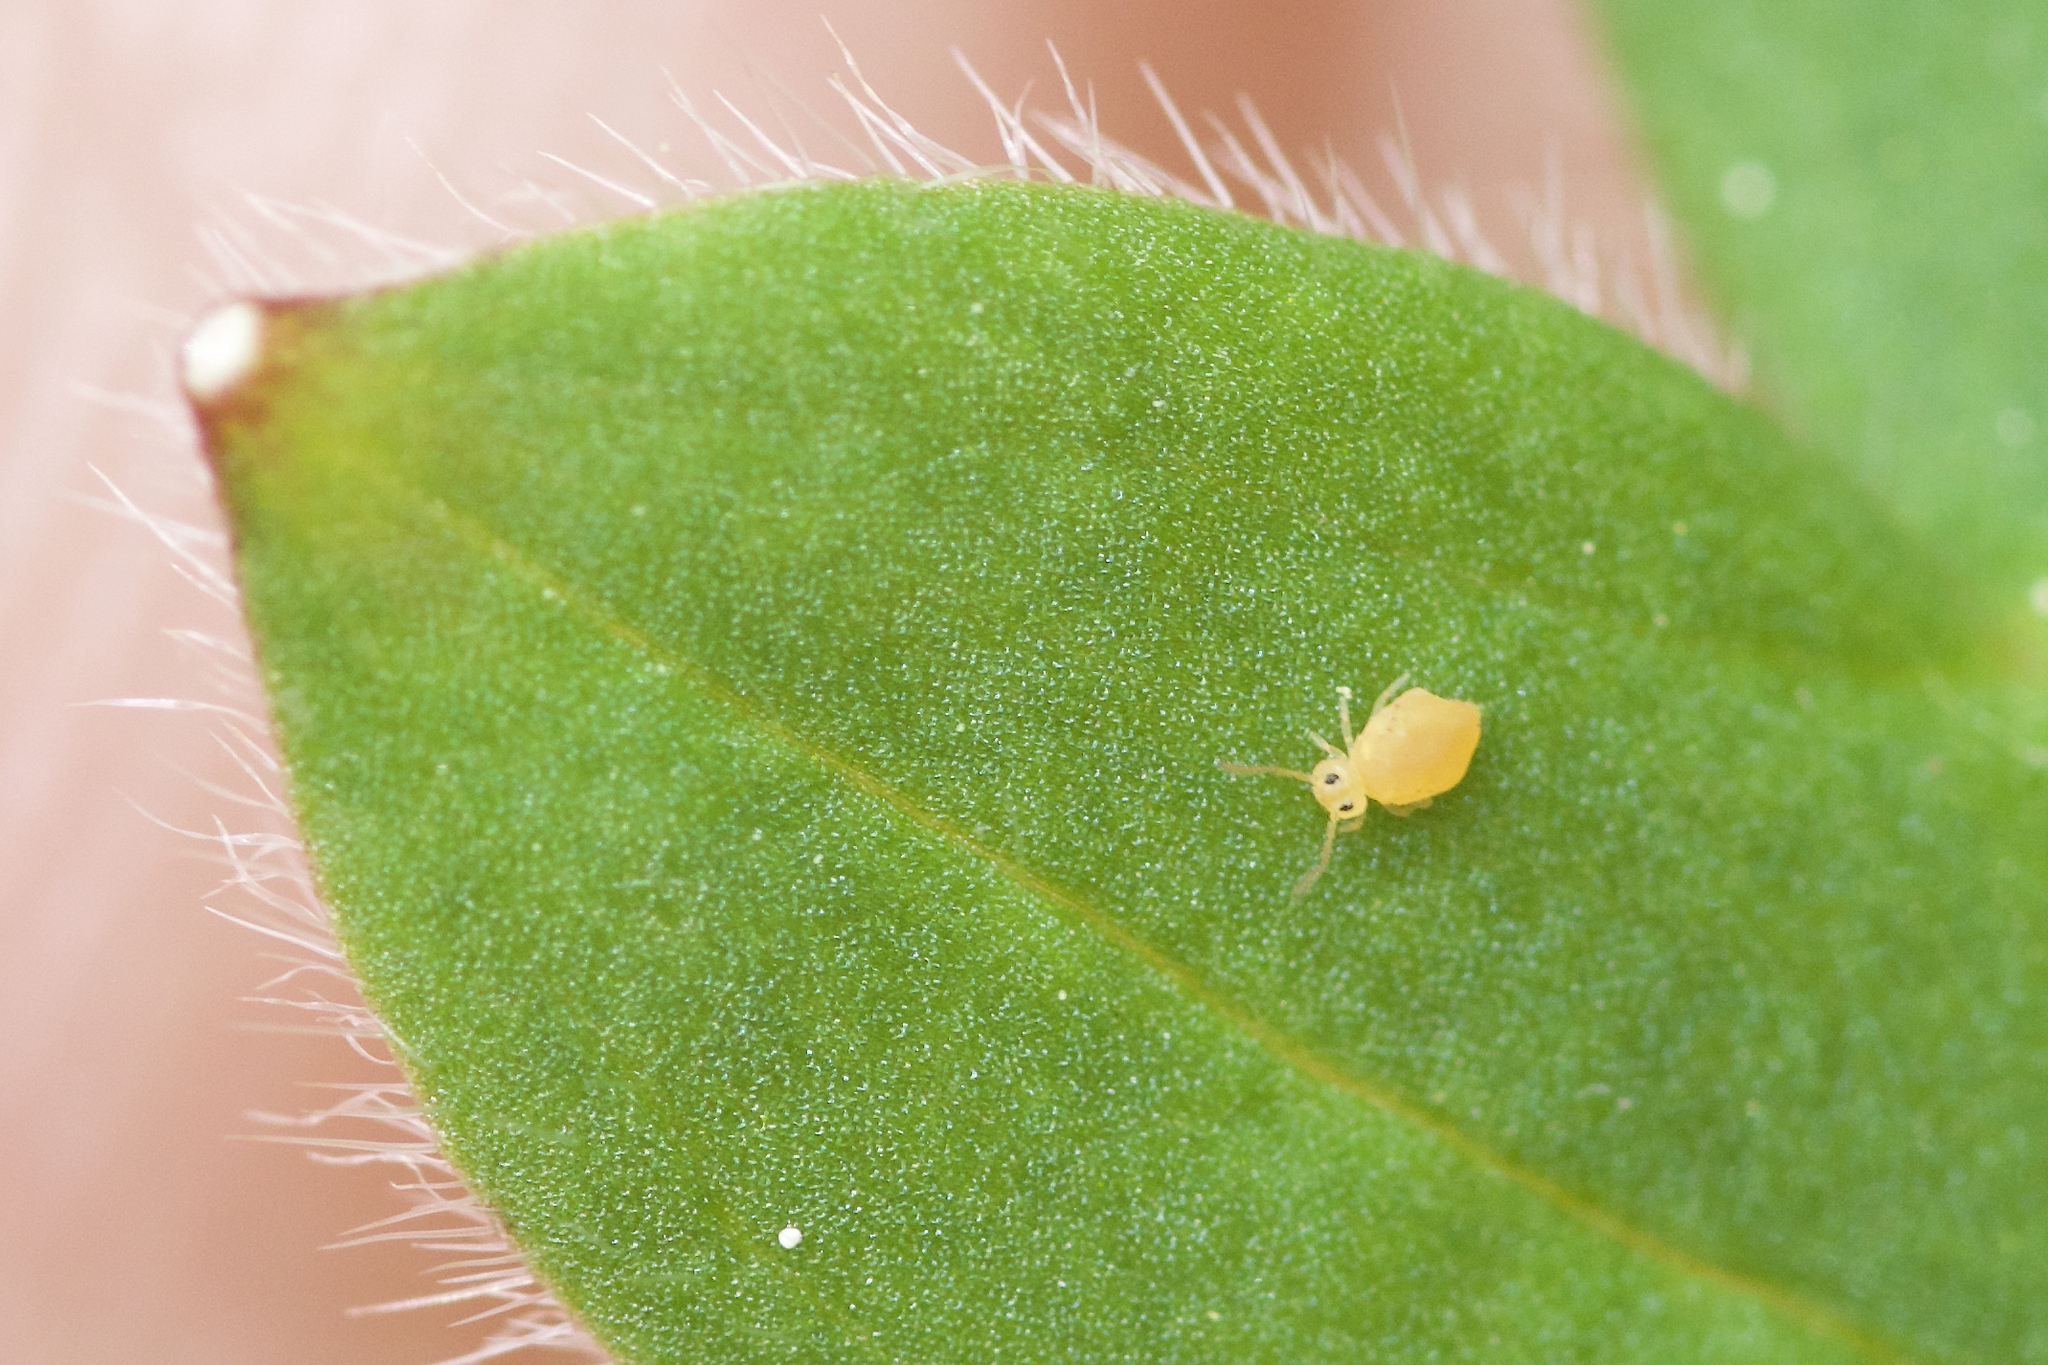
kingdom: Animalia
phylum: Arthropoda
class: Collembola
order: Symphypleona
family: Bourletiellidae
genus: Bourletiella
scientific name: Bourletiella arvalis
